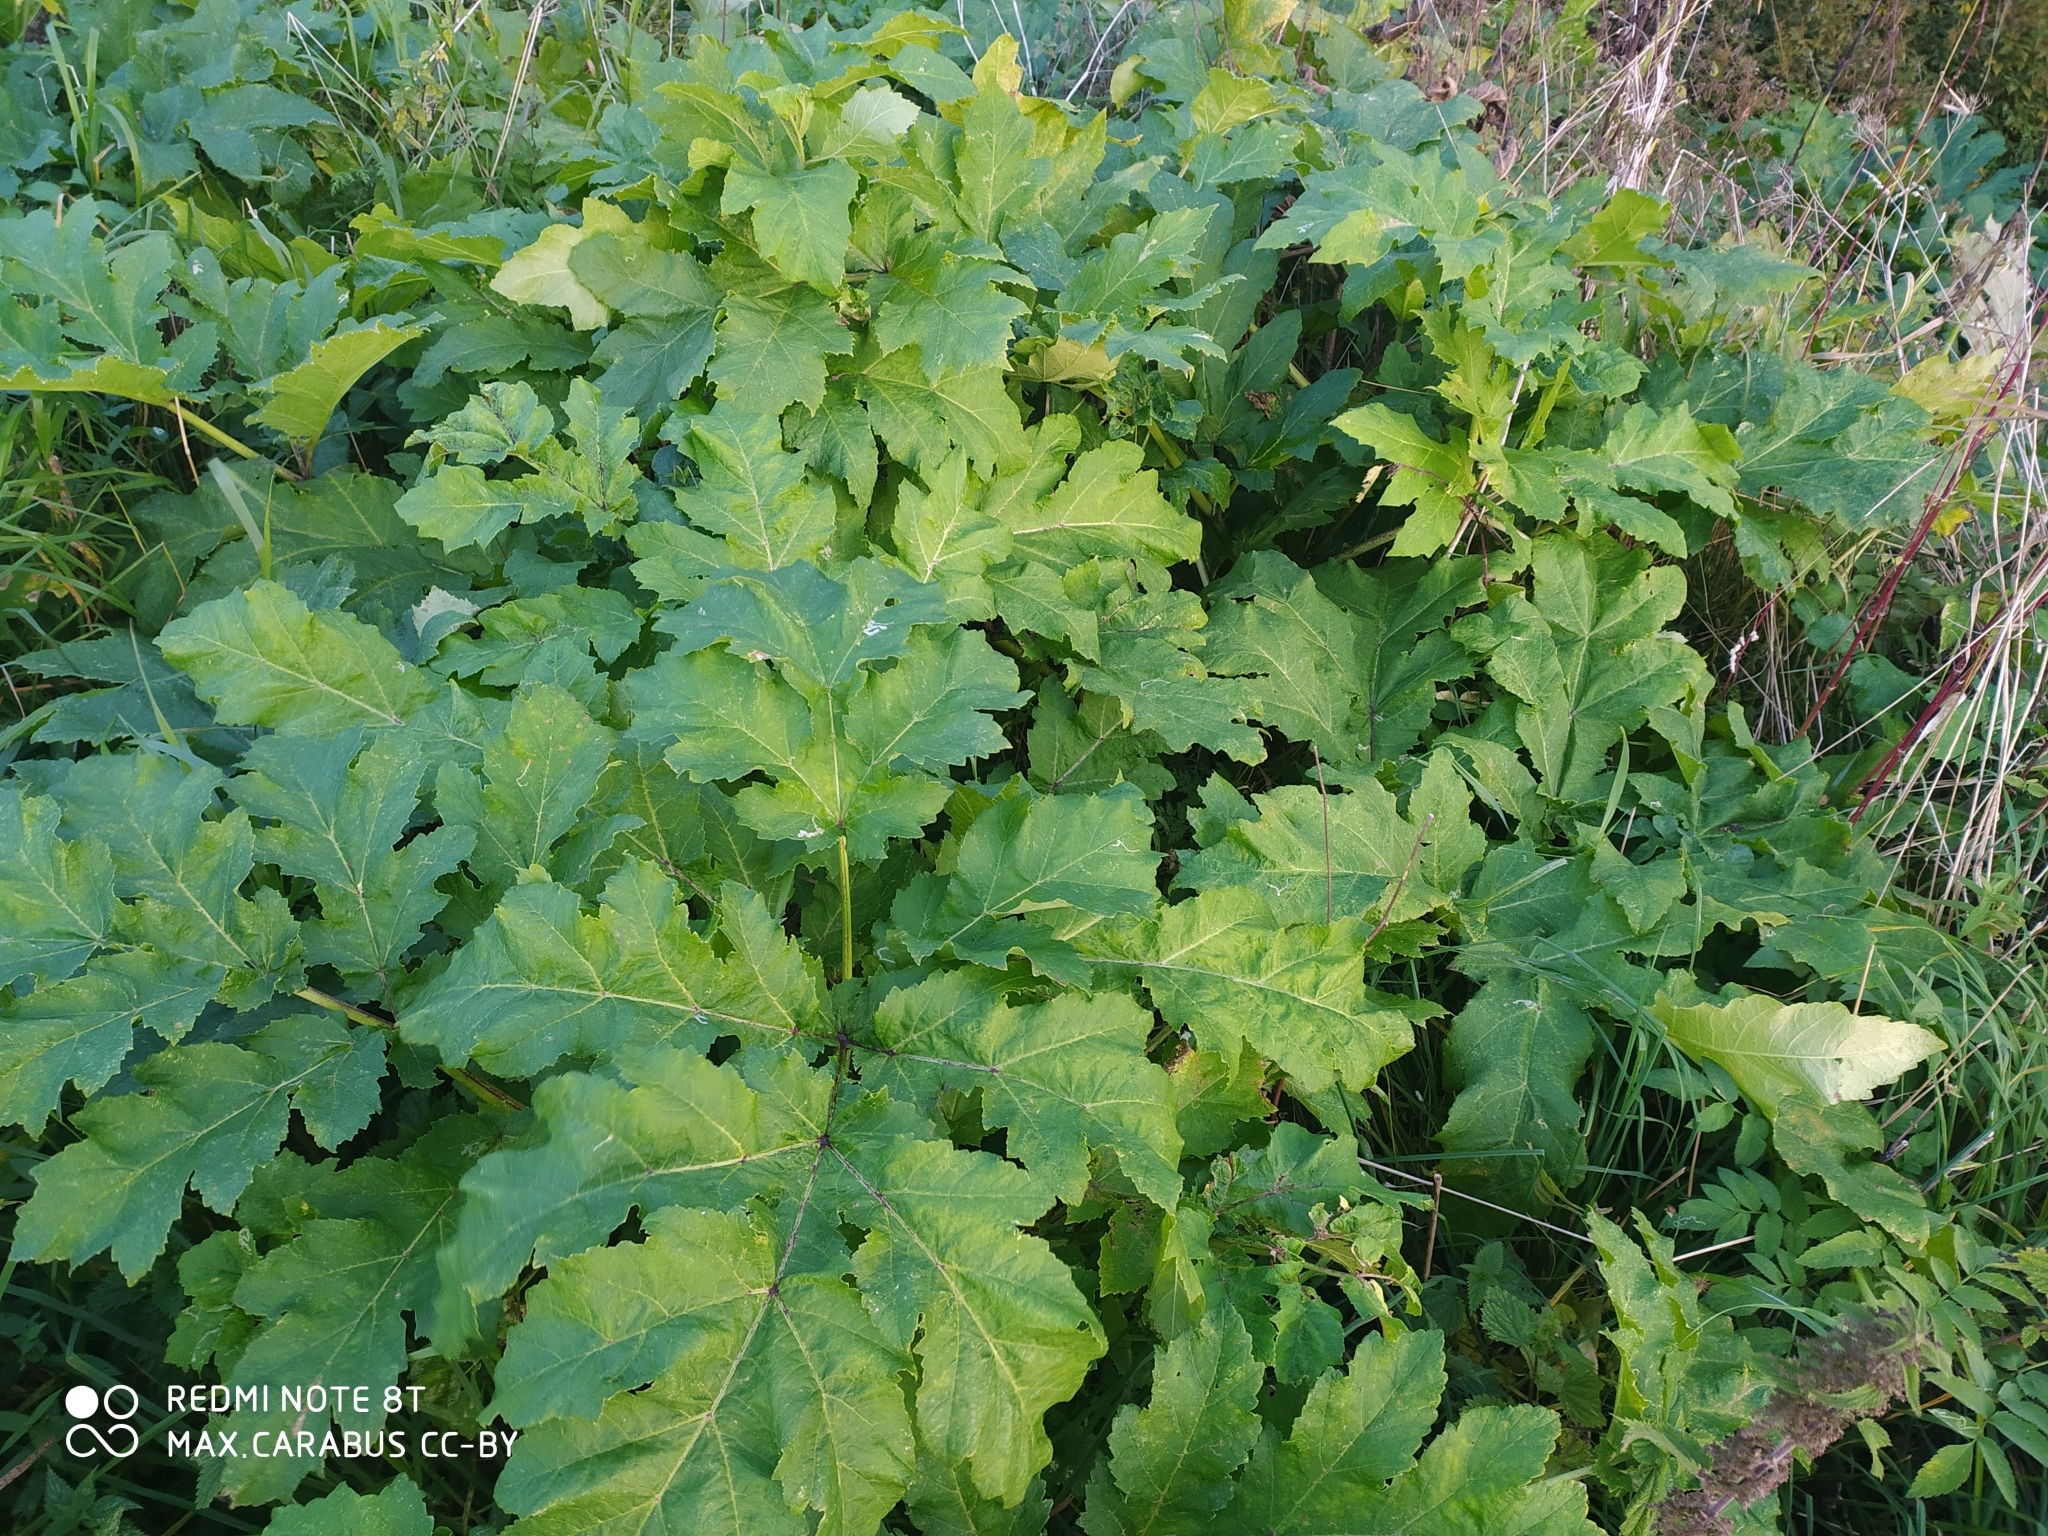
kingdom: Plantae
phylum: Tracheophyta
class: Magnoliopsida
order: Apiales
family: Apiaceae
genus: Heracleum
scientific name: Heracleum sosnowskyi
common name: Sosnowsky's hogweed
